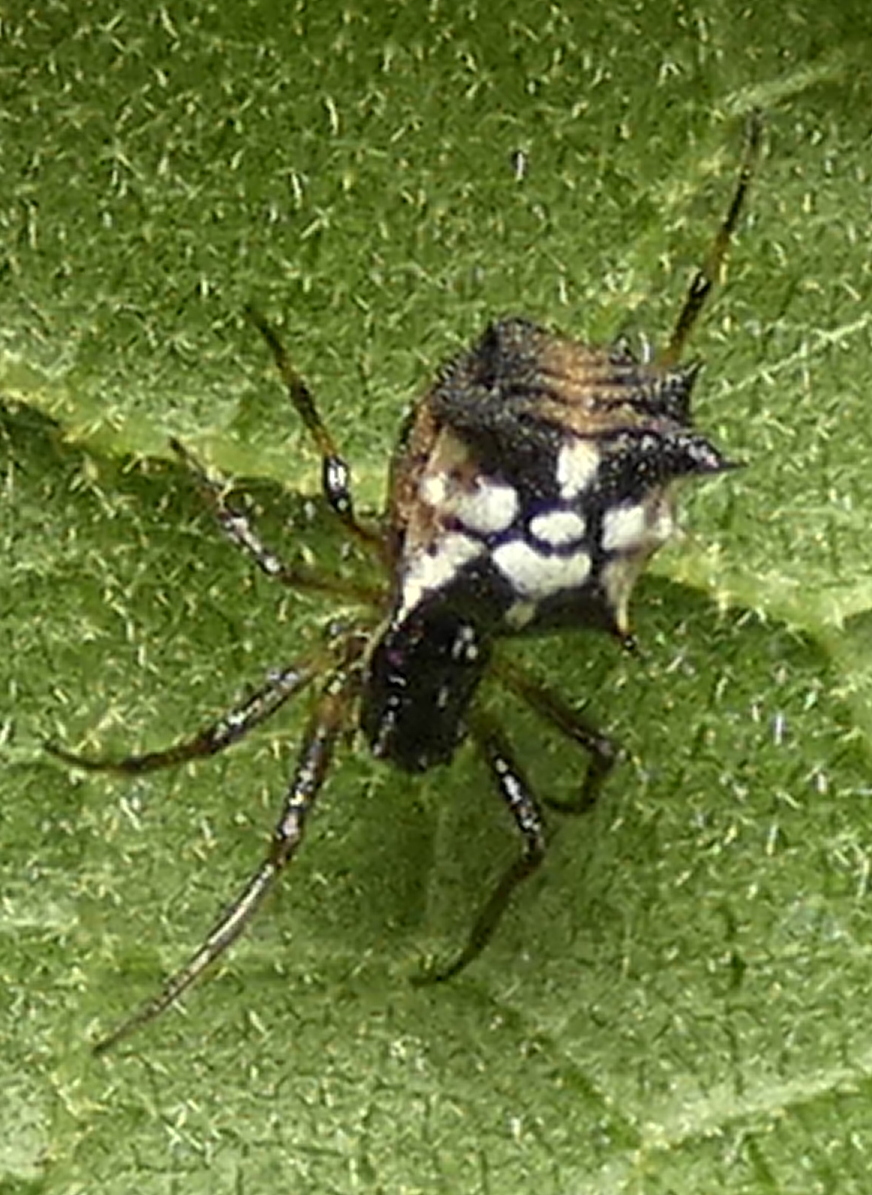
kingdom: Animalia
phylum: Arthropoda
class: Arachnida
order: Araneae
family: Araneidae
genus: Micrathena
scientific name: Micrathena picta
